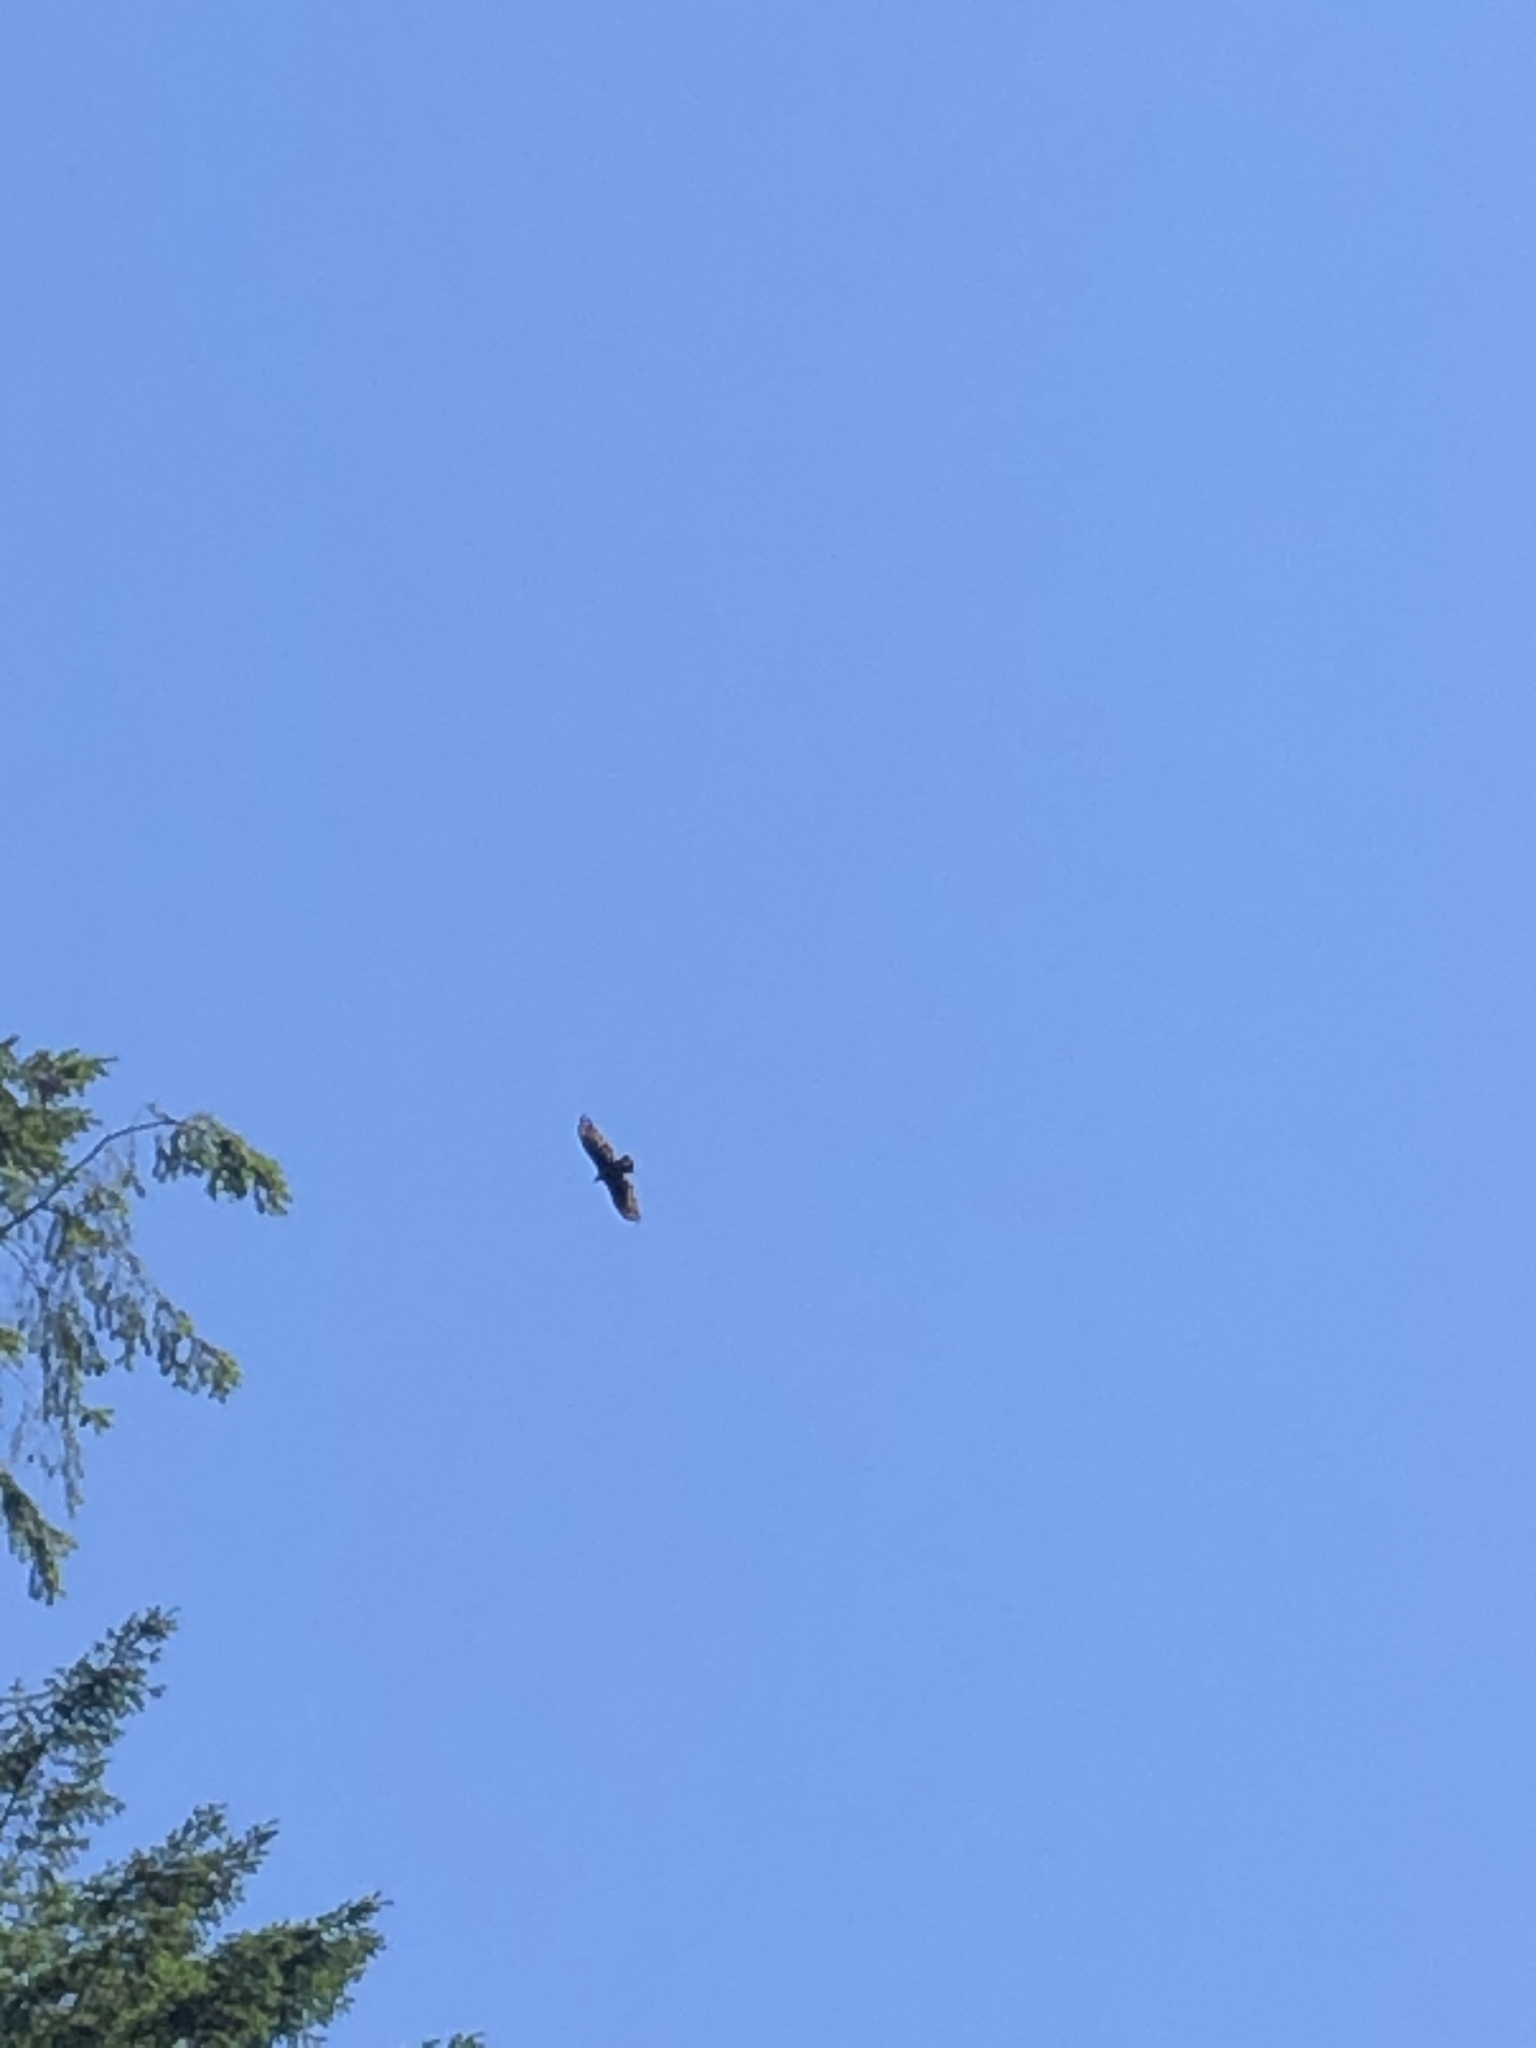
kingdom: Animalia
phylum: Chordata
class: Aves
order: Accipitriformes
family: Cathartidae
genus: Cathartes
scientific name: Cathartes aura
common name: Turkey vulture
